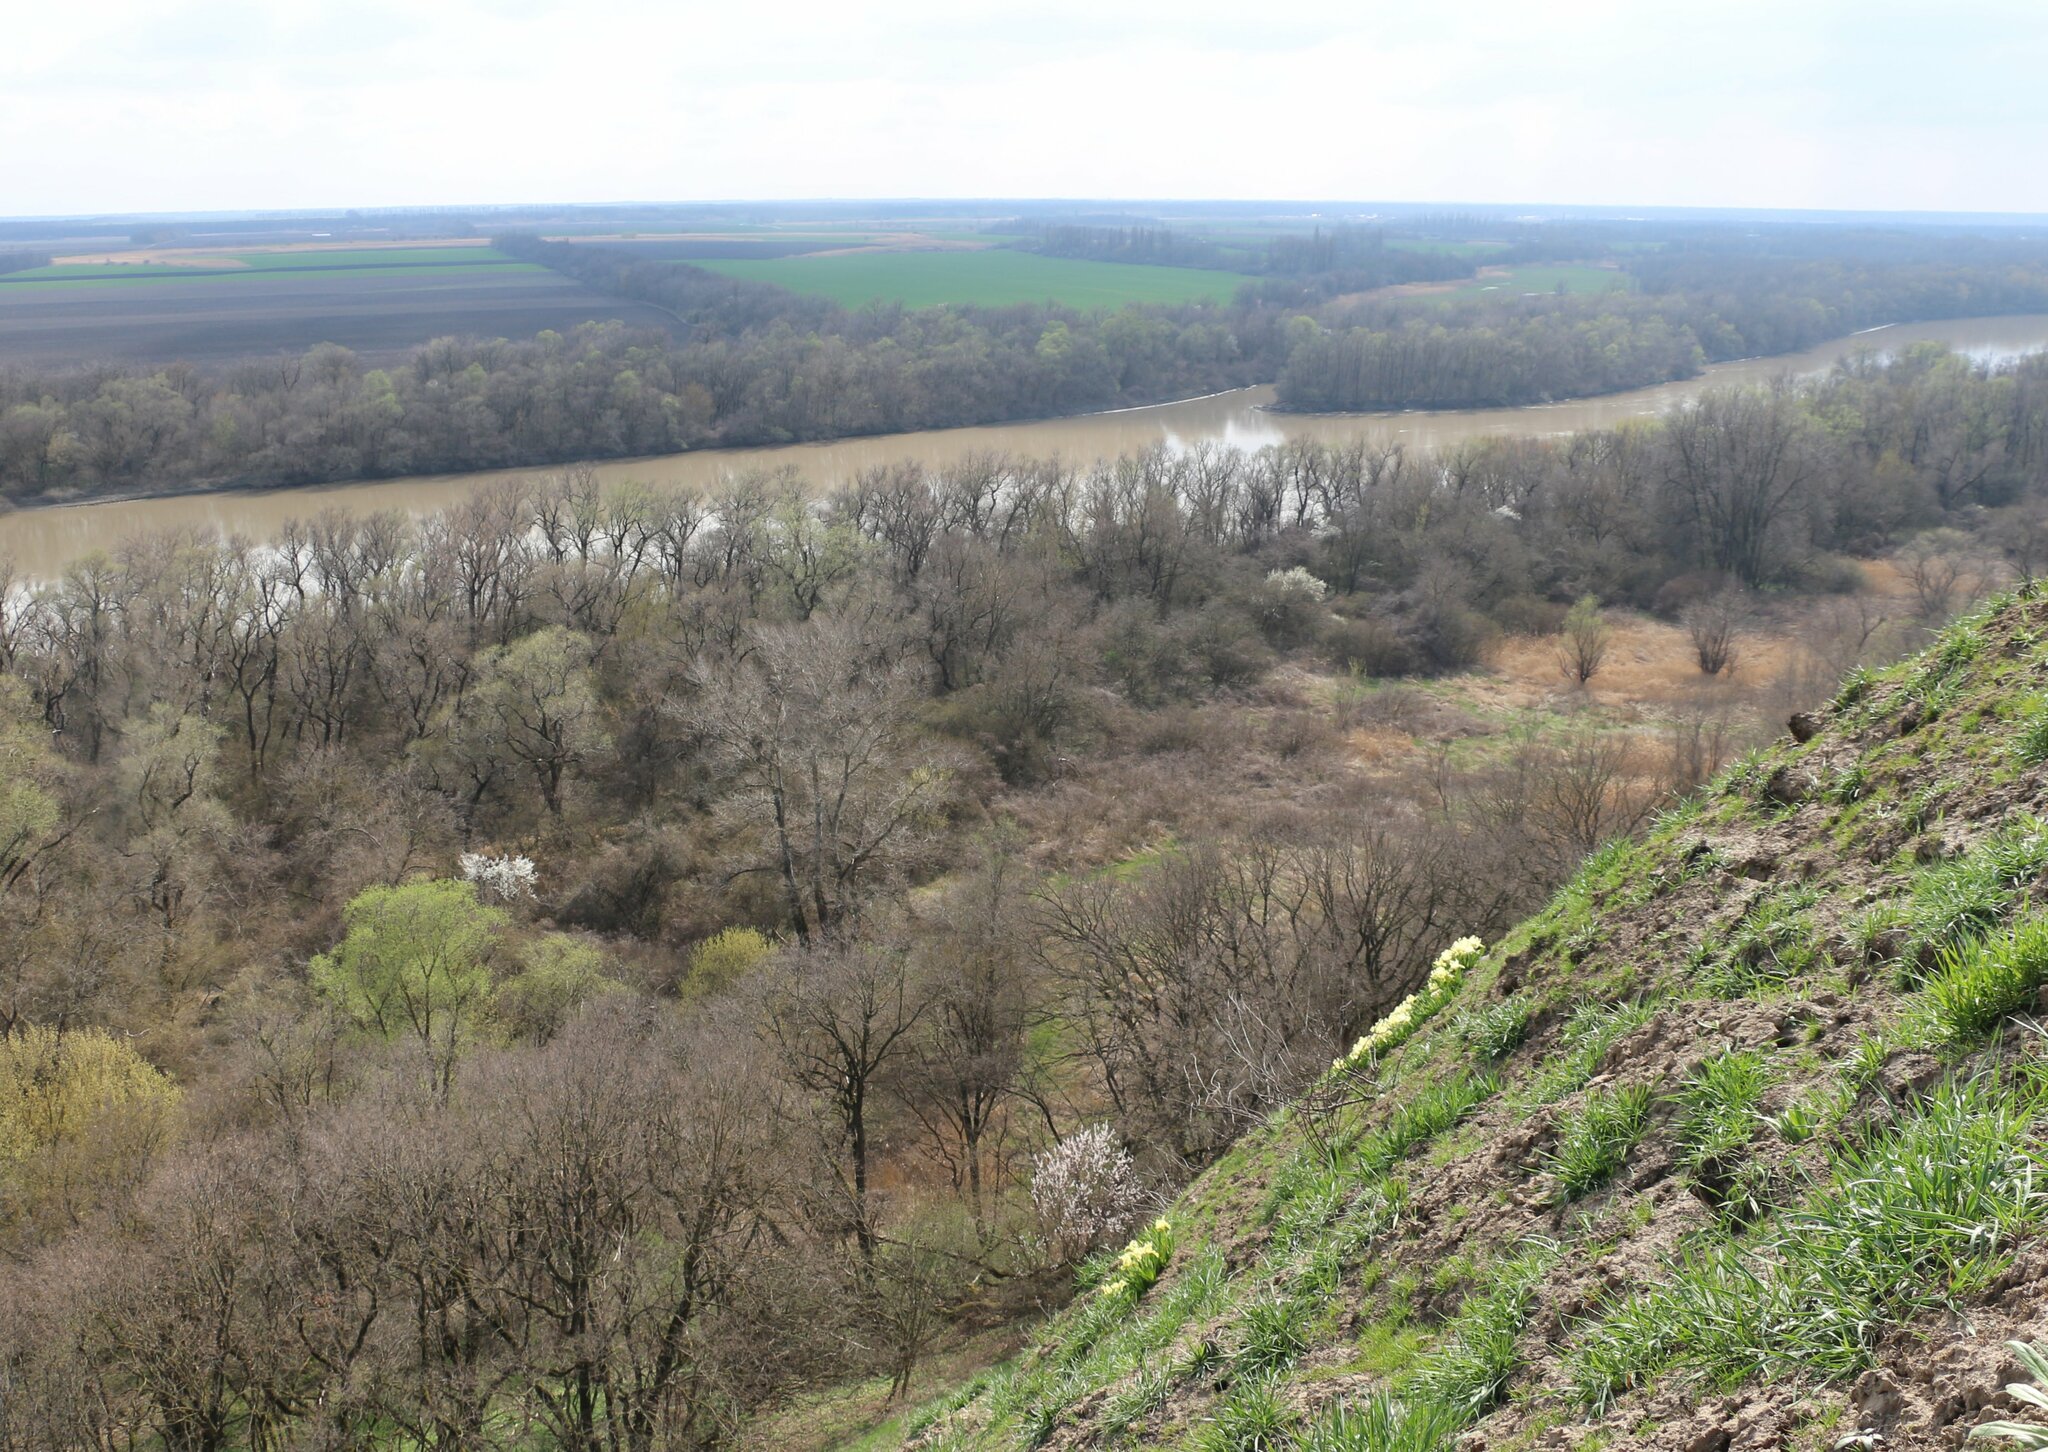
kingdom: Plantae
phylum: Tracheophyta
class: Liliopsida
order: Asparagales
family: Iridaceae
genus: Iris
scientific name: Iris pumila
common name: Dwarf iris
